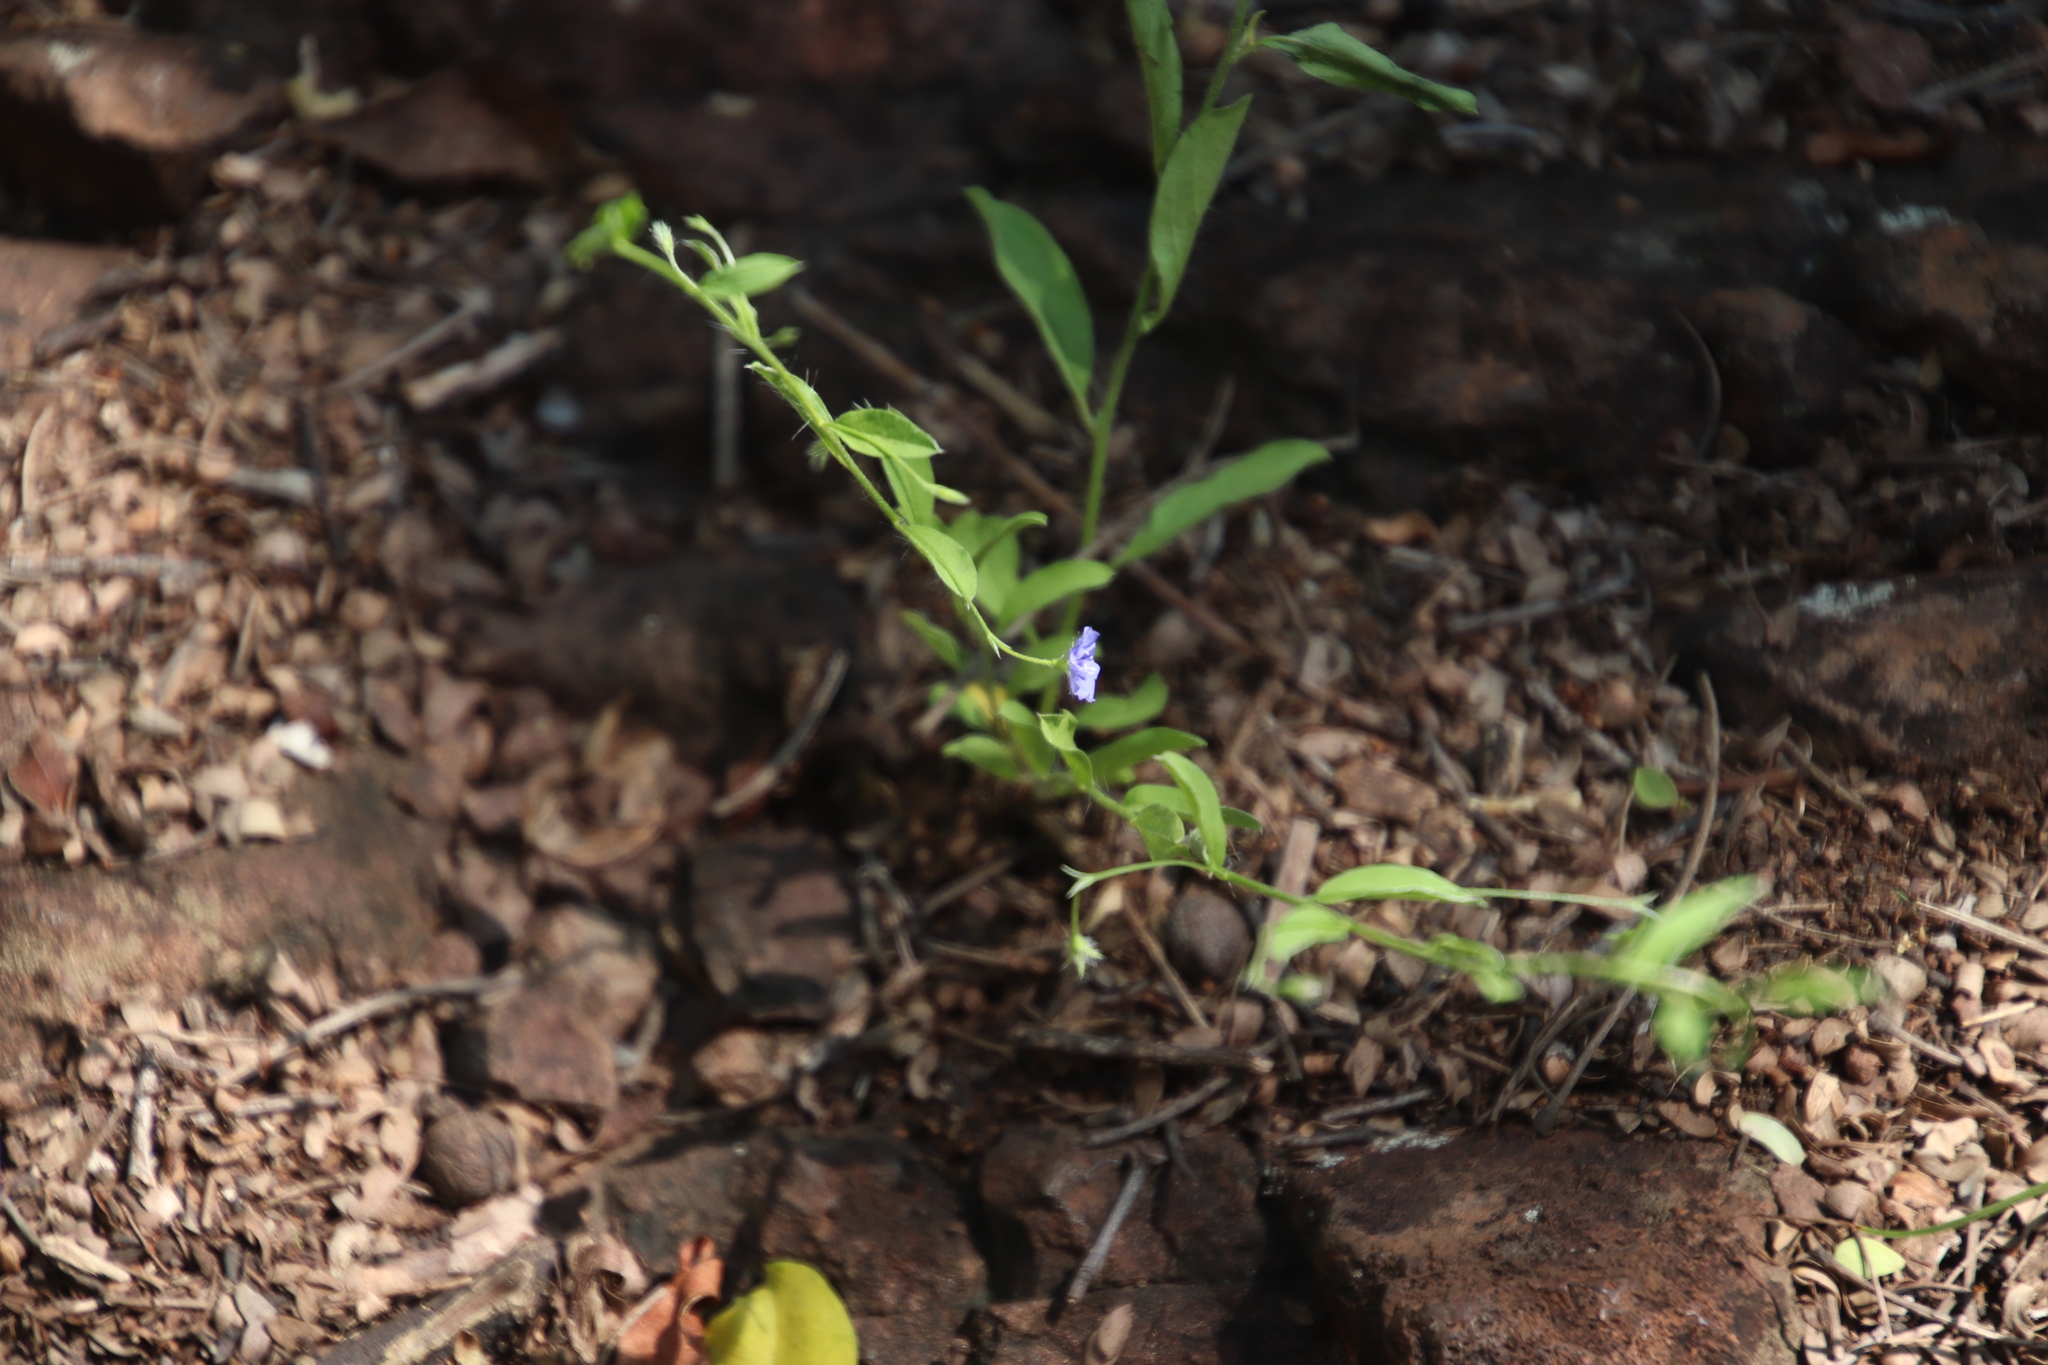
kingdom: Plantae
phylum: Tracheophyta
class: Magnoliopsida
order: Solanales
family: Convolvulaceae
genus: Evolvulus
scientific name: Evolvulus alsinoides
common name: Slender dwarf morning-glory
